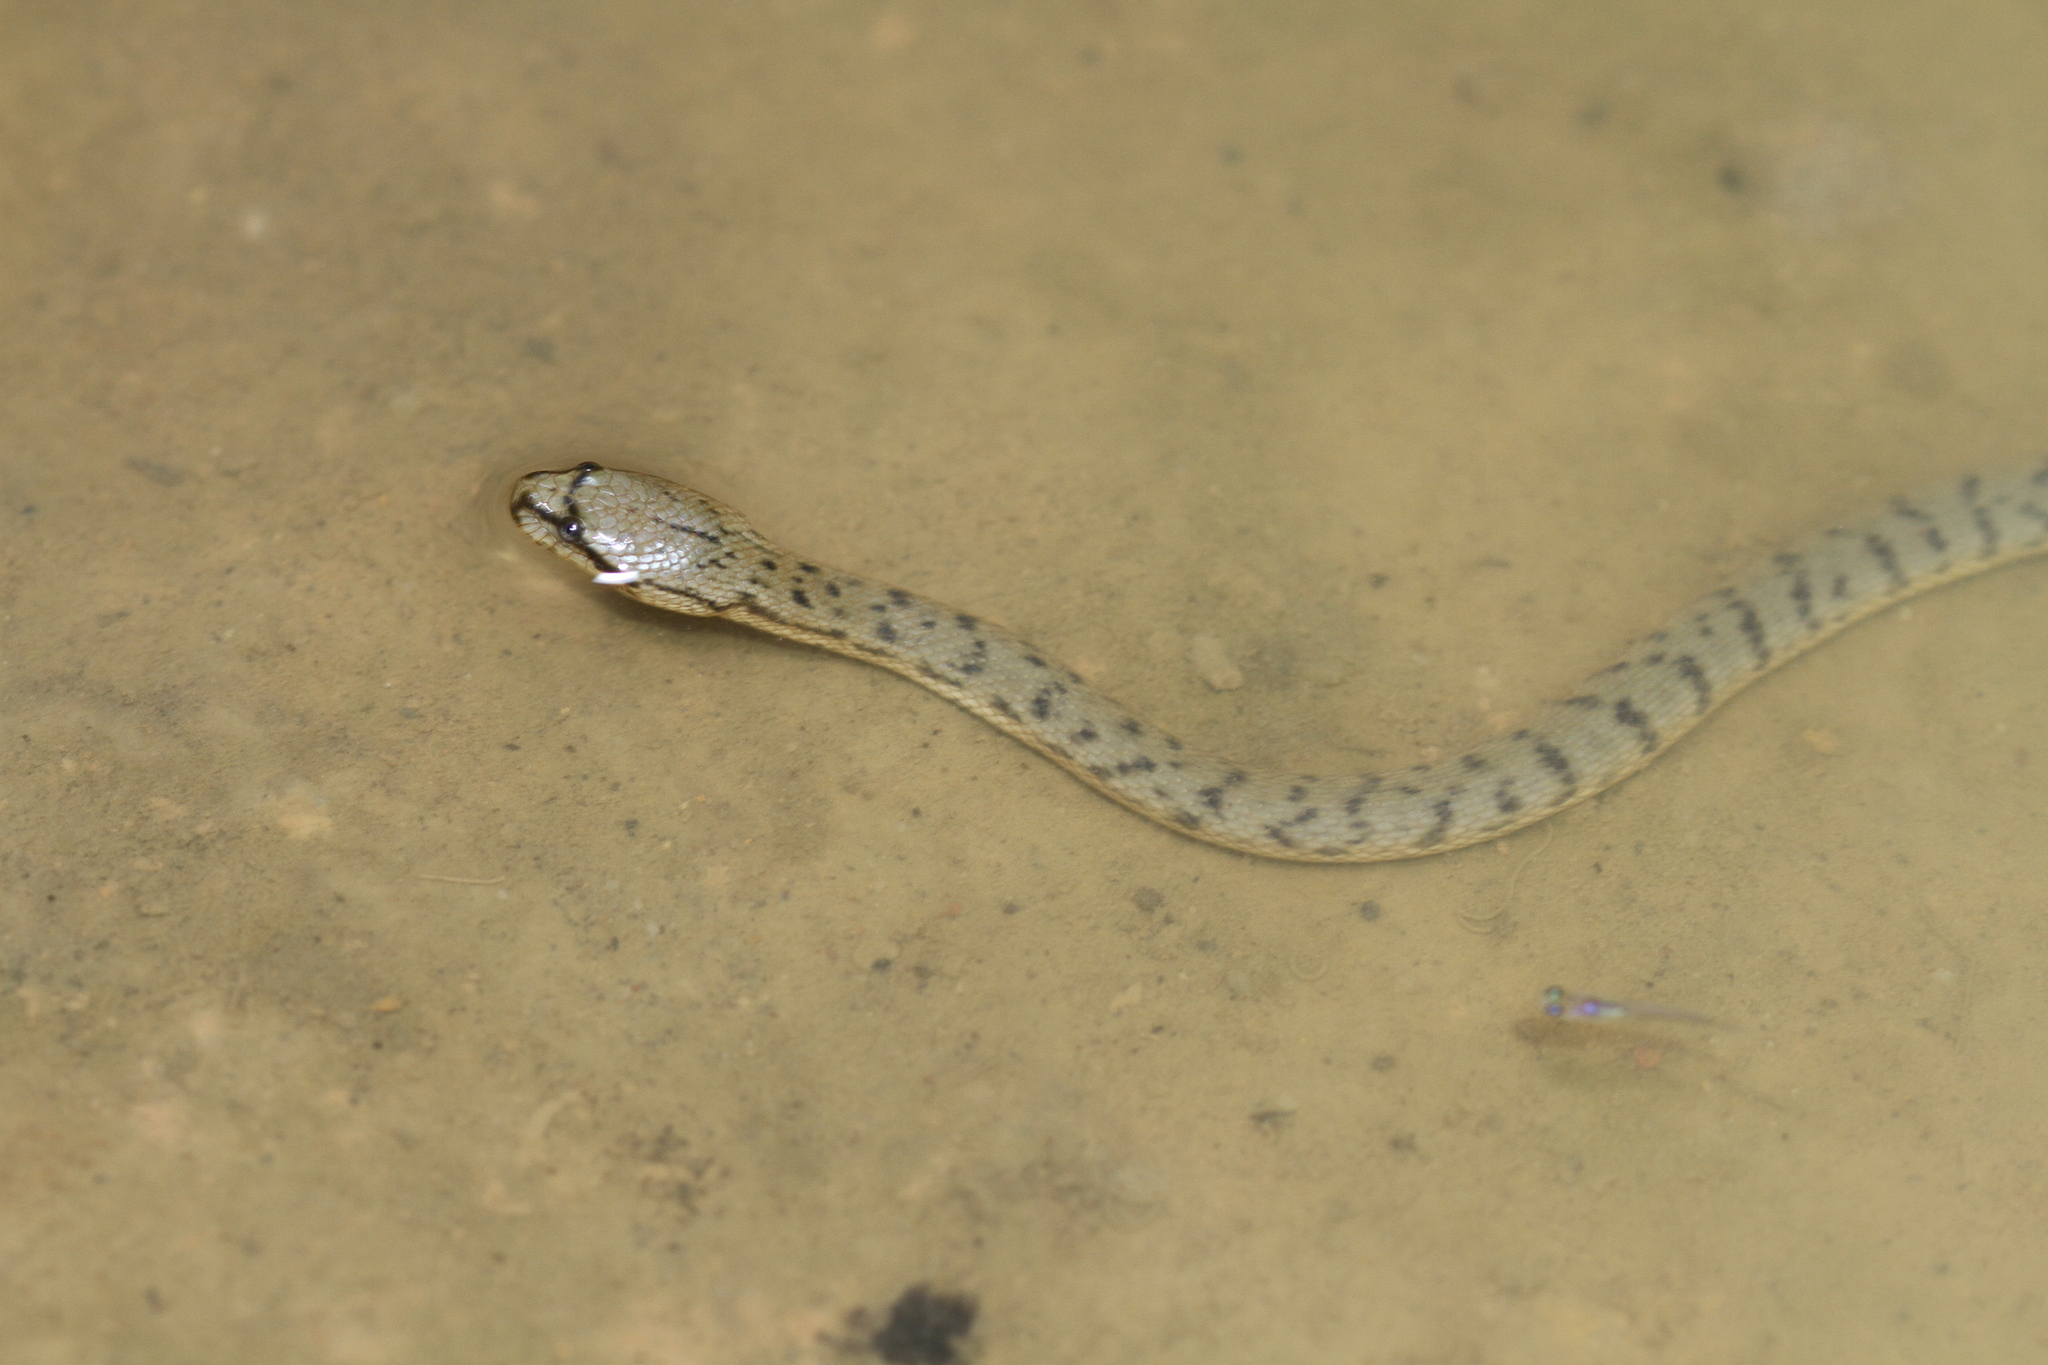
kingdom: Animalia
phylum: Chordata
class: Squamata
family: Homalopsidae
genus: Cerberus
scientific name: Cerberus schneiderii
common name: Southeast asian bockadam
